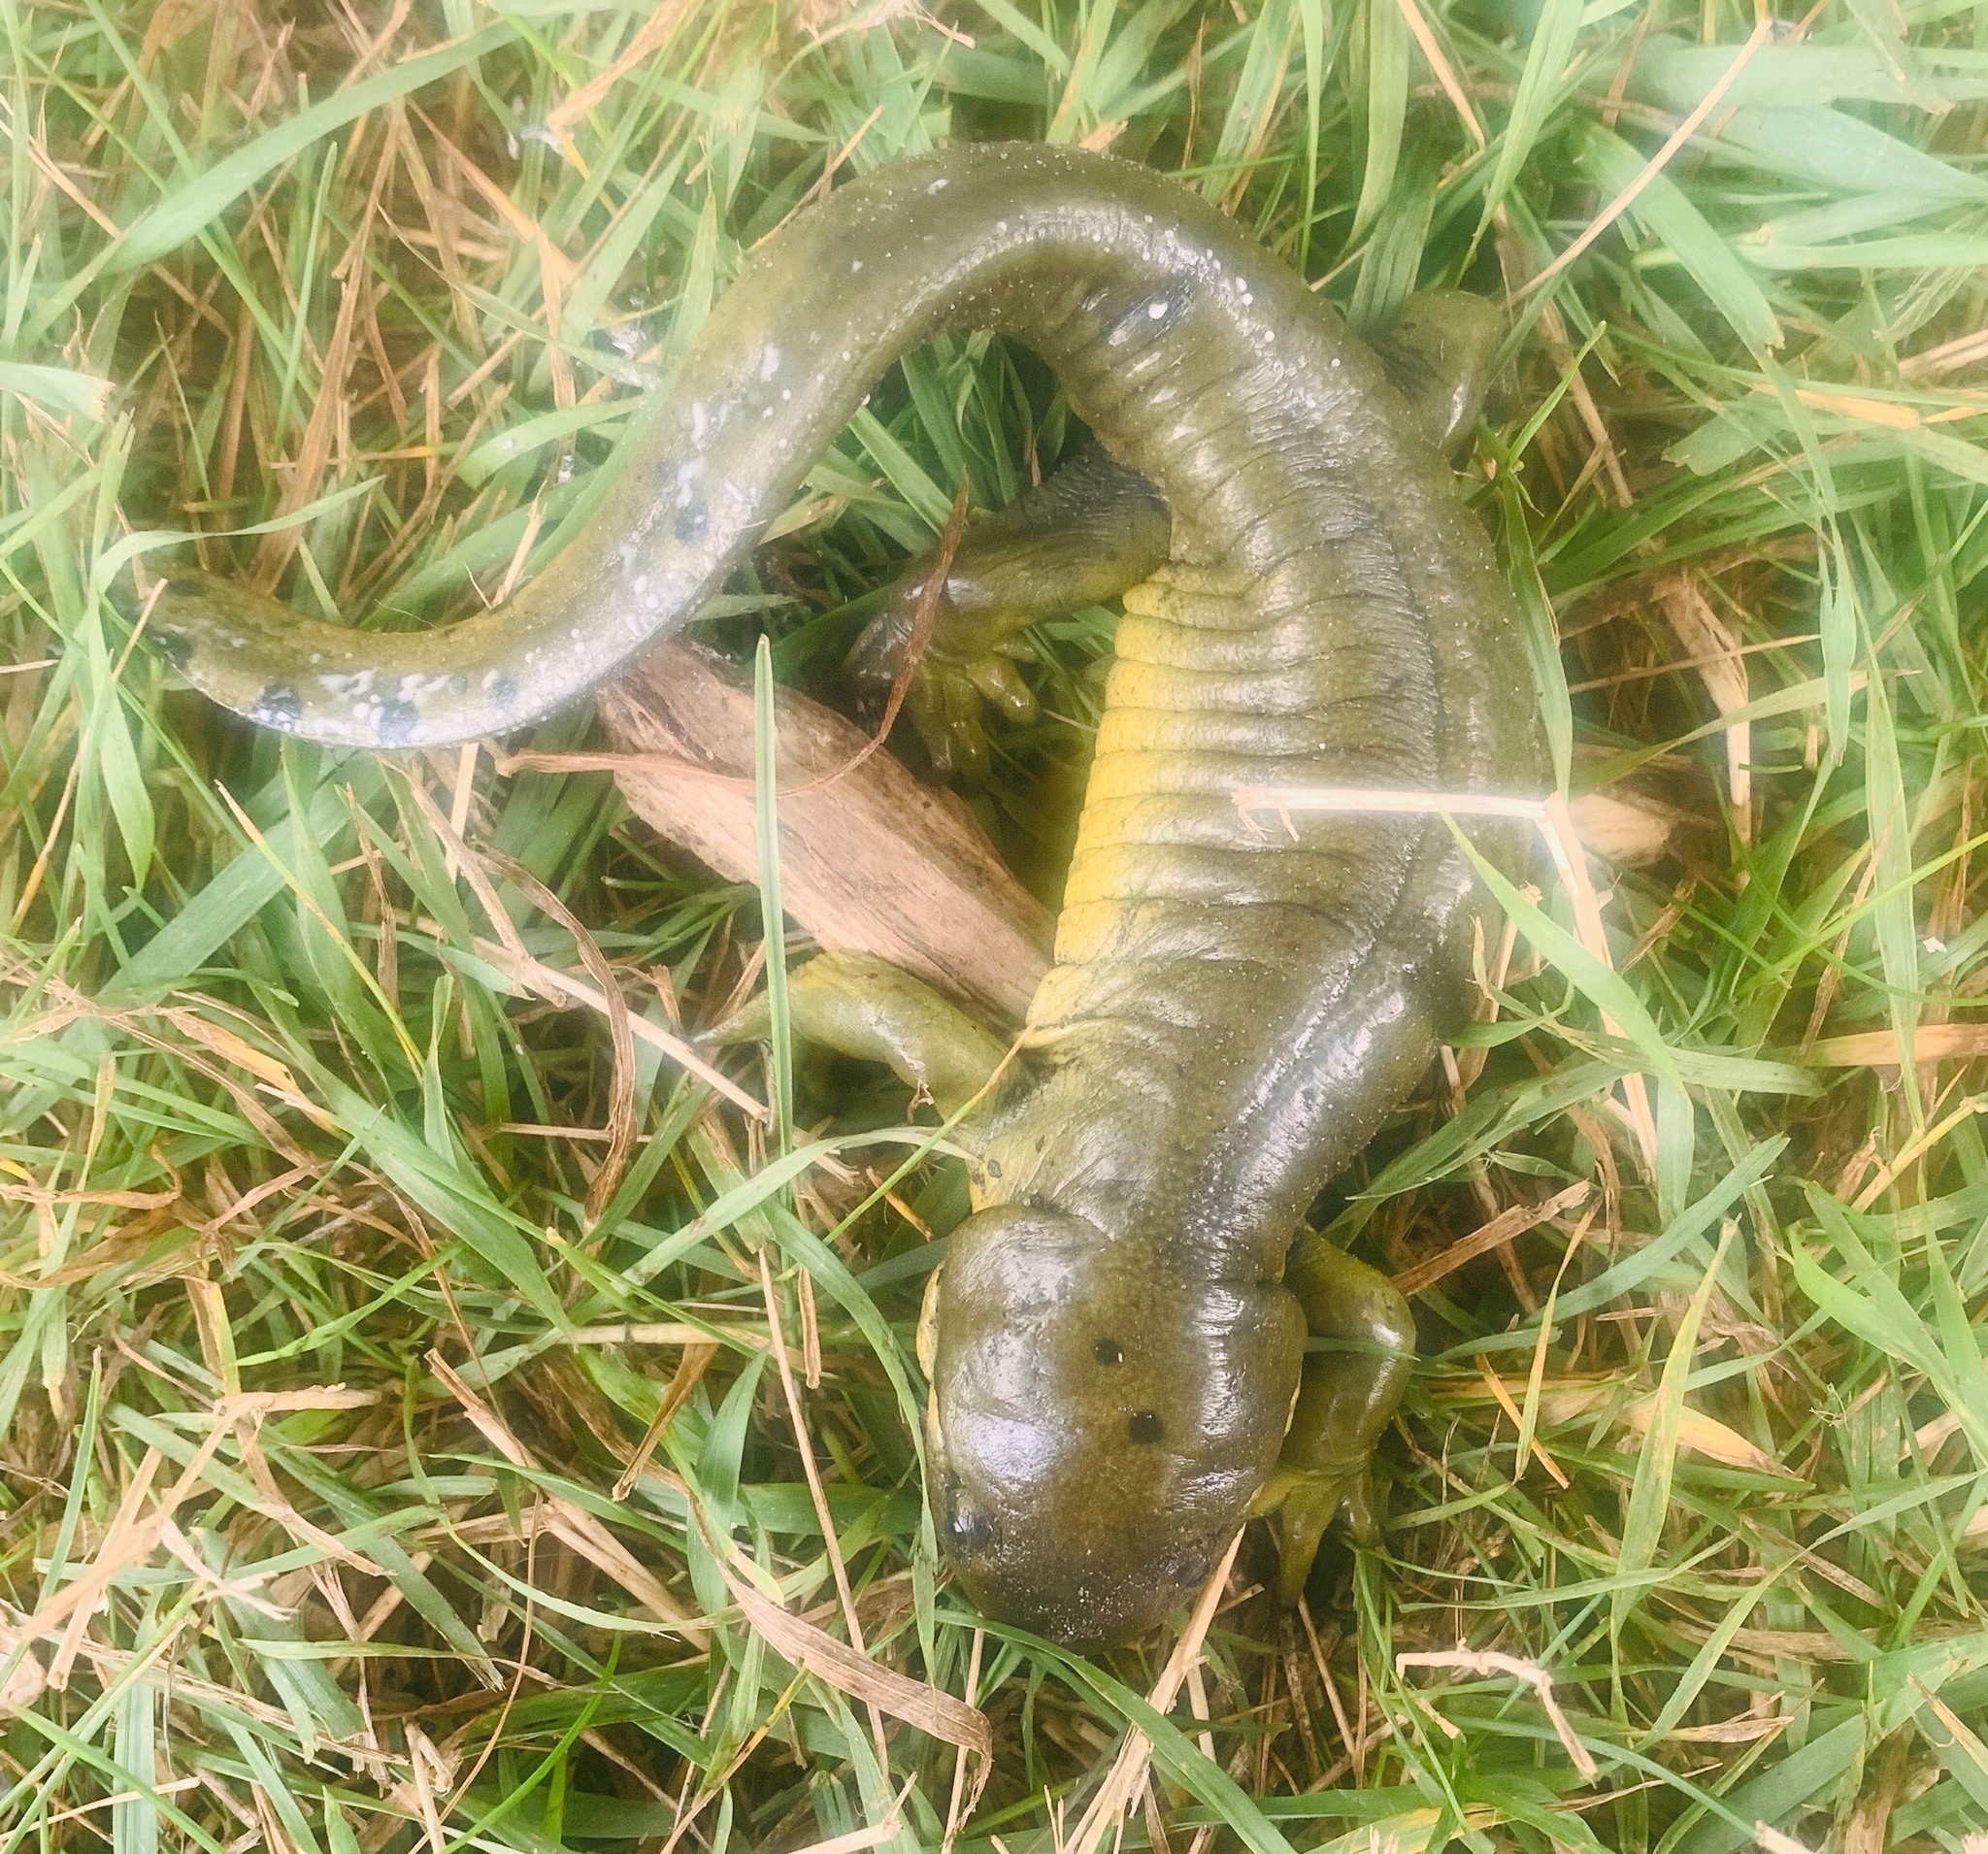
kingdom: Animalia
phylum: Chordata
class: Amphibia
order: Caudata
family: Ambystomatidae
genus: Ambystoma
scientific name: Ambystoma mavortium
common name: Western tiger salamander
